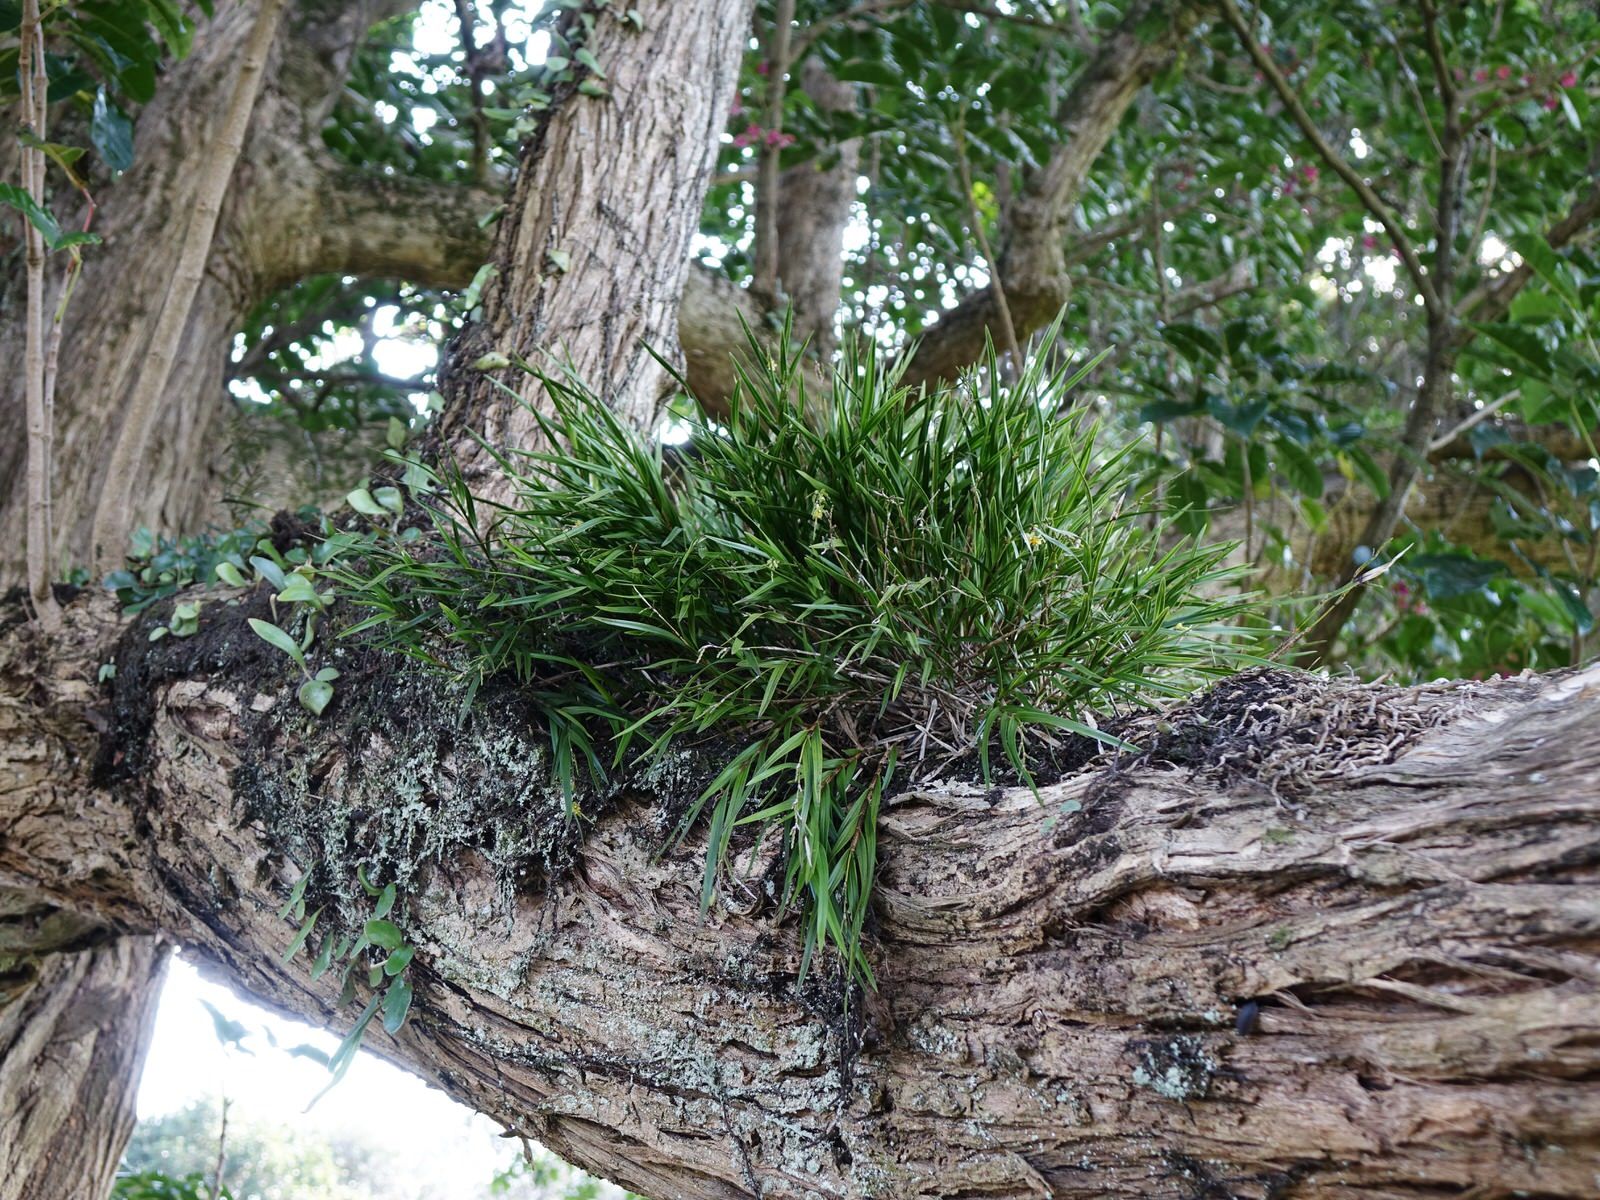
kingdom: Plantae
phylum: Tracheophyta
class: Liliopsida
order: Asparagales
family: Orchidaceae
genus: Earina
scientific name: Earina mucronata
